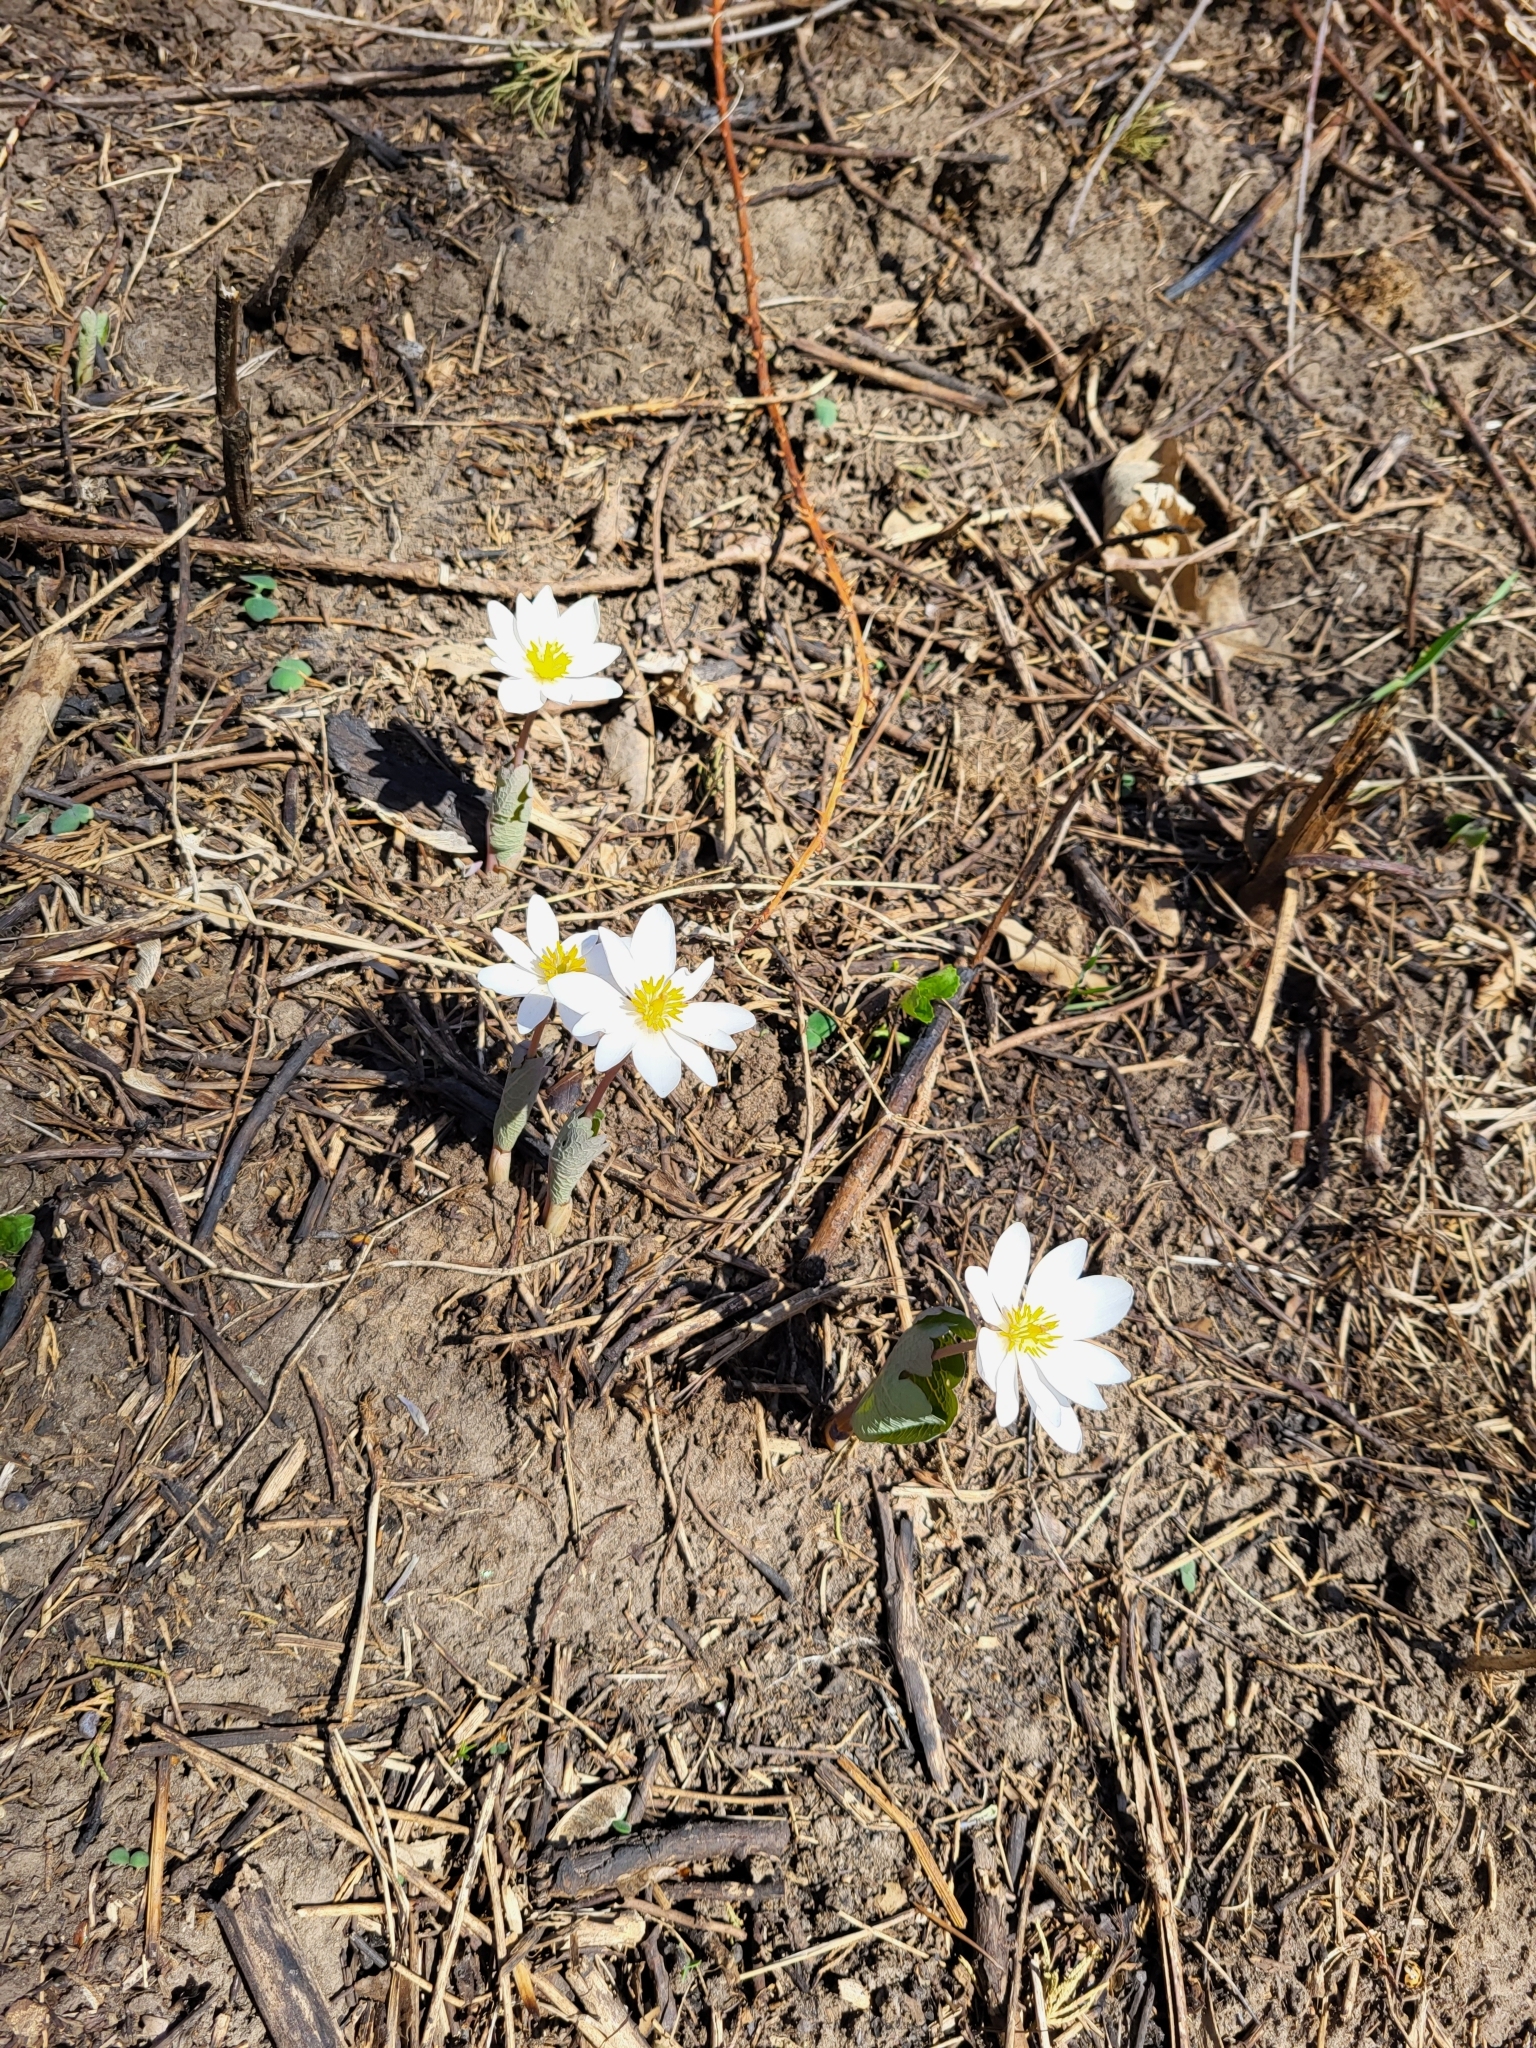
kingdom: Plantae
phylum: Tracheophyta
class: Magnoliopsida
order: Ranunculales
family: Papaveraceae
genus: Sanguinaria
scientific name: Sanguinaria canadensis
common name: Bloodroot
